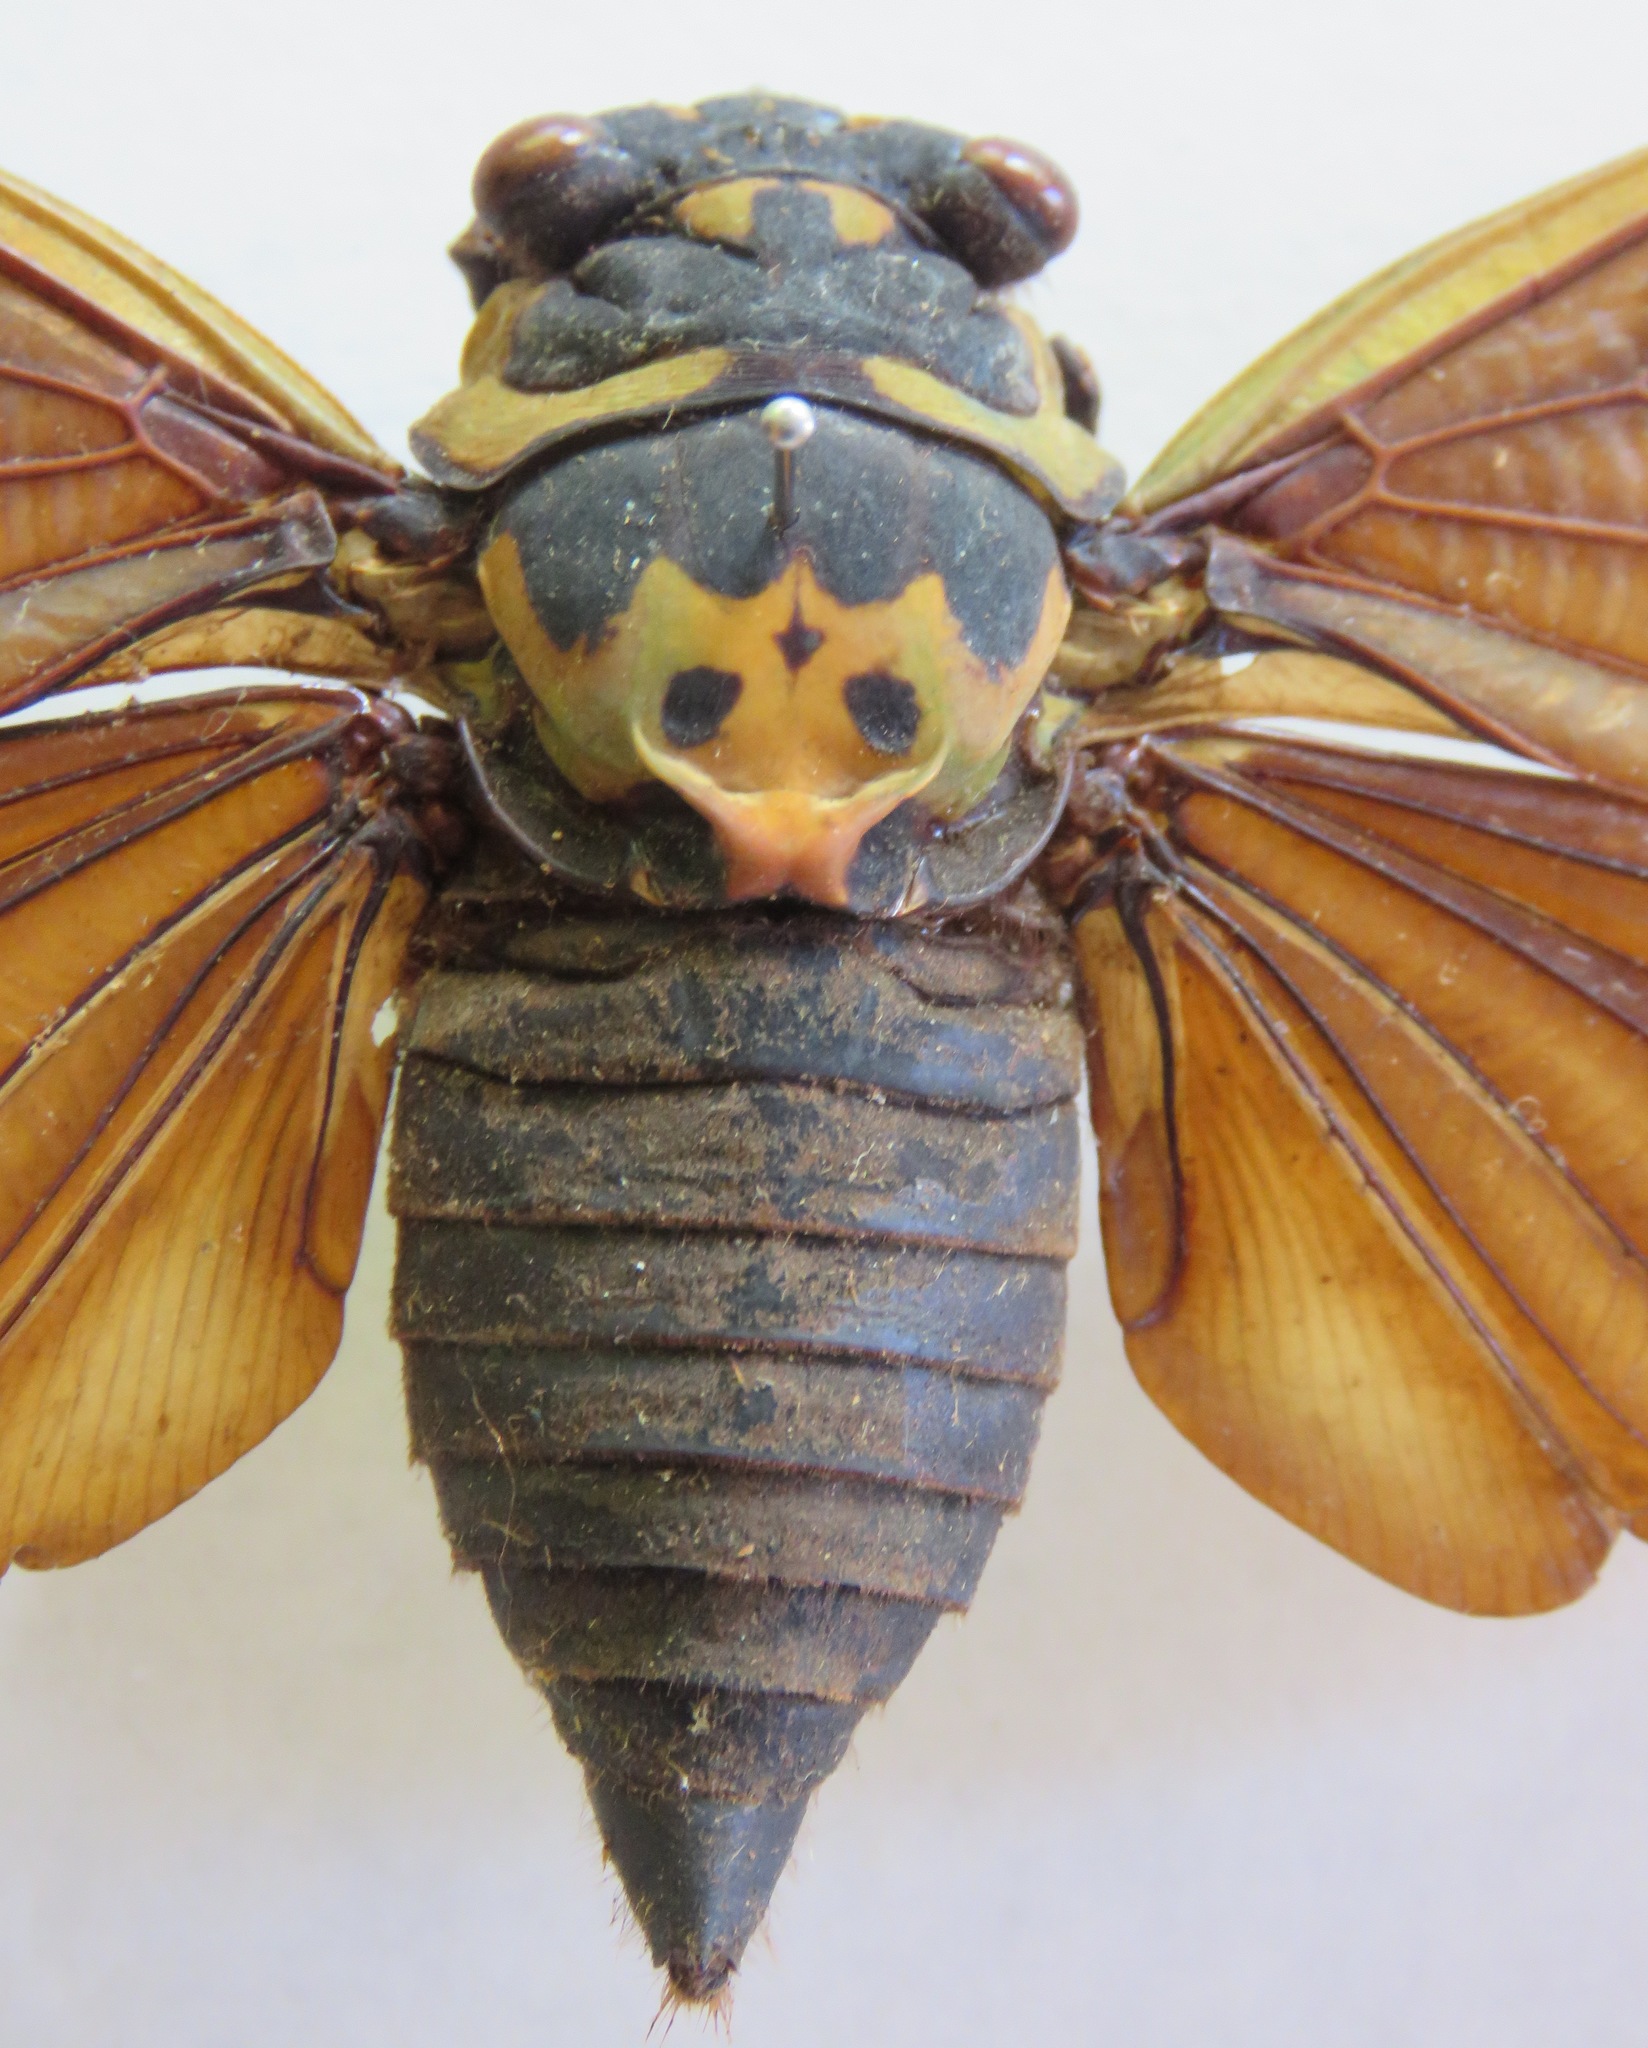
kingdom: Animalia
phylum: Arthropoda
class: Insecta
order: Hemiptera
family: Cicadidae
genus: Formotosena
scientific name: Formotosena seebohmi
